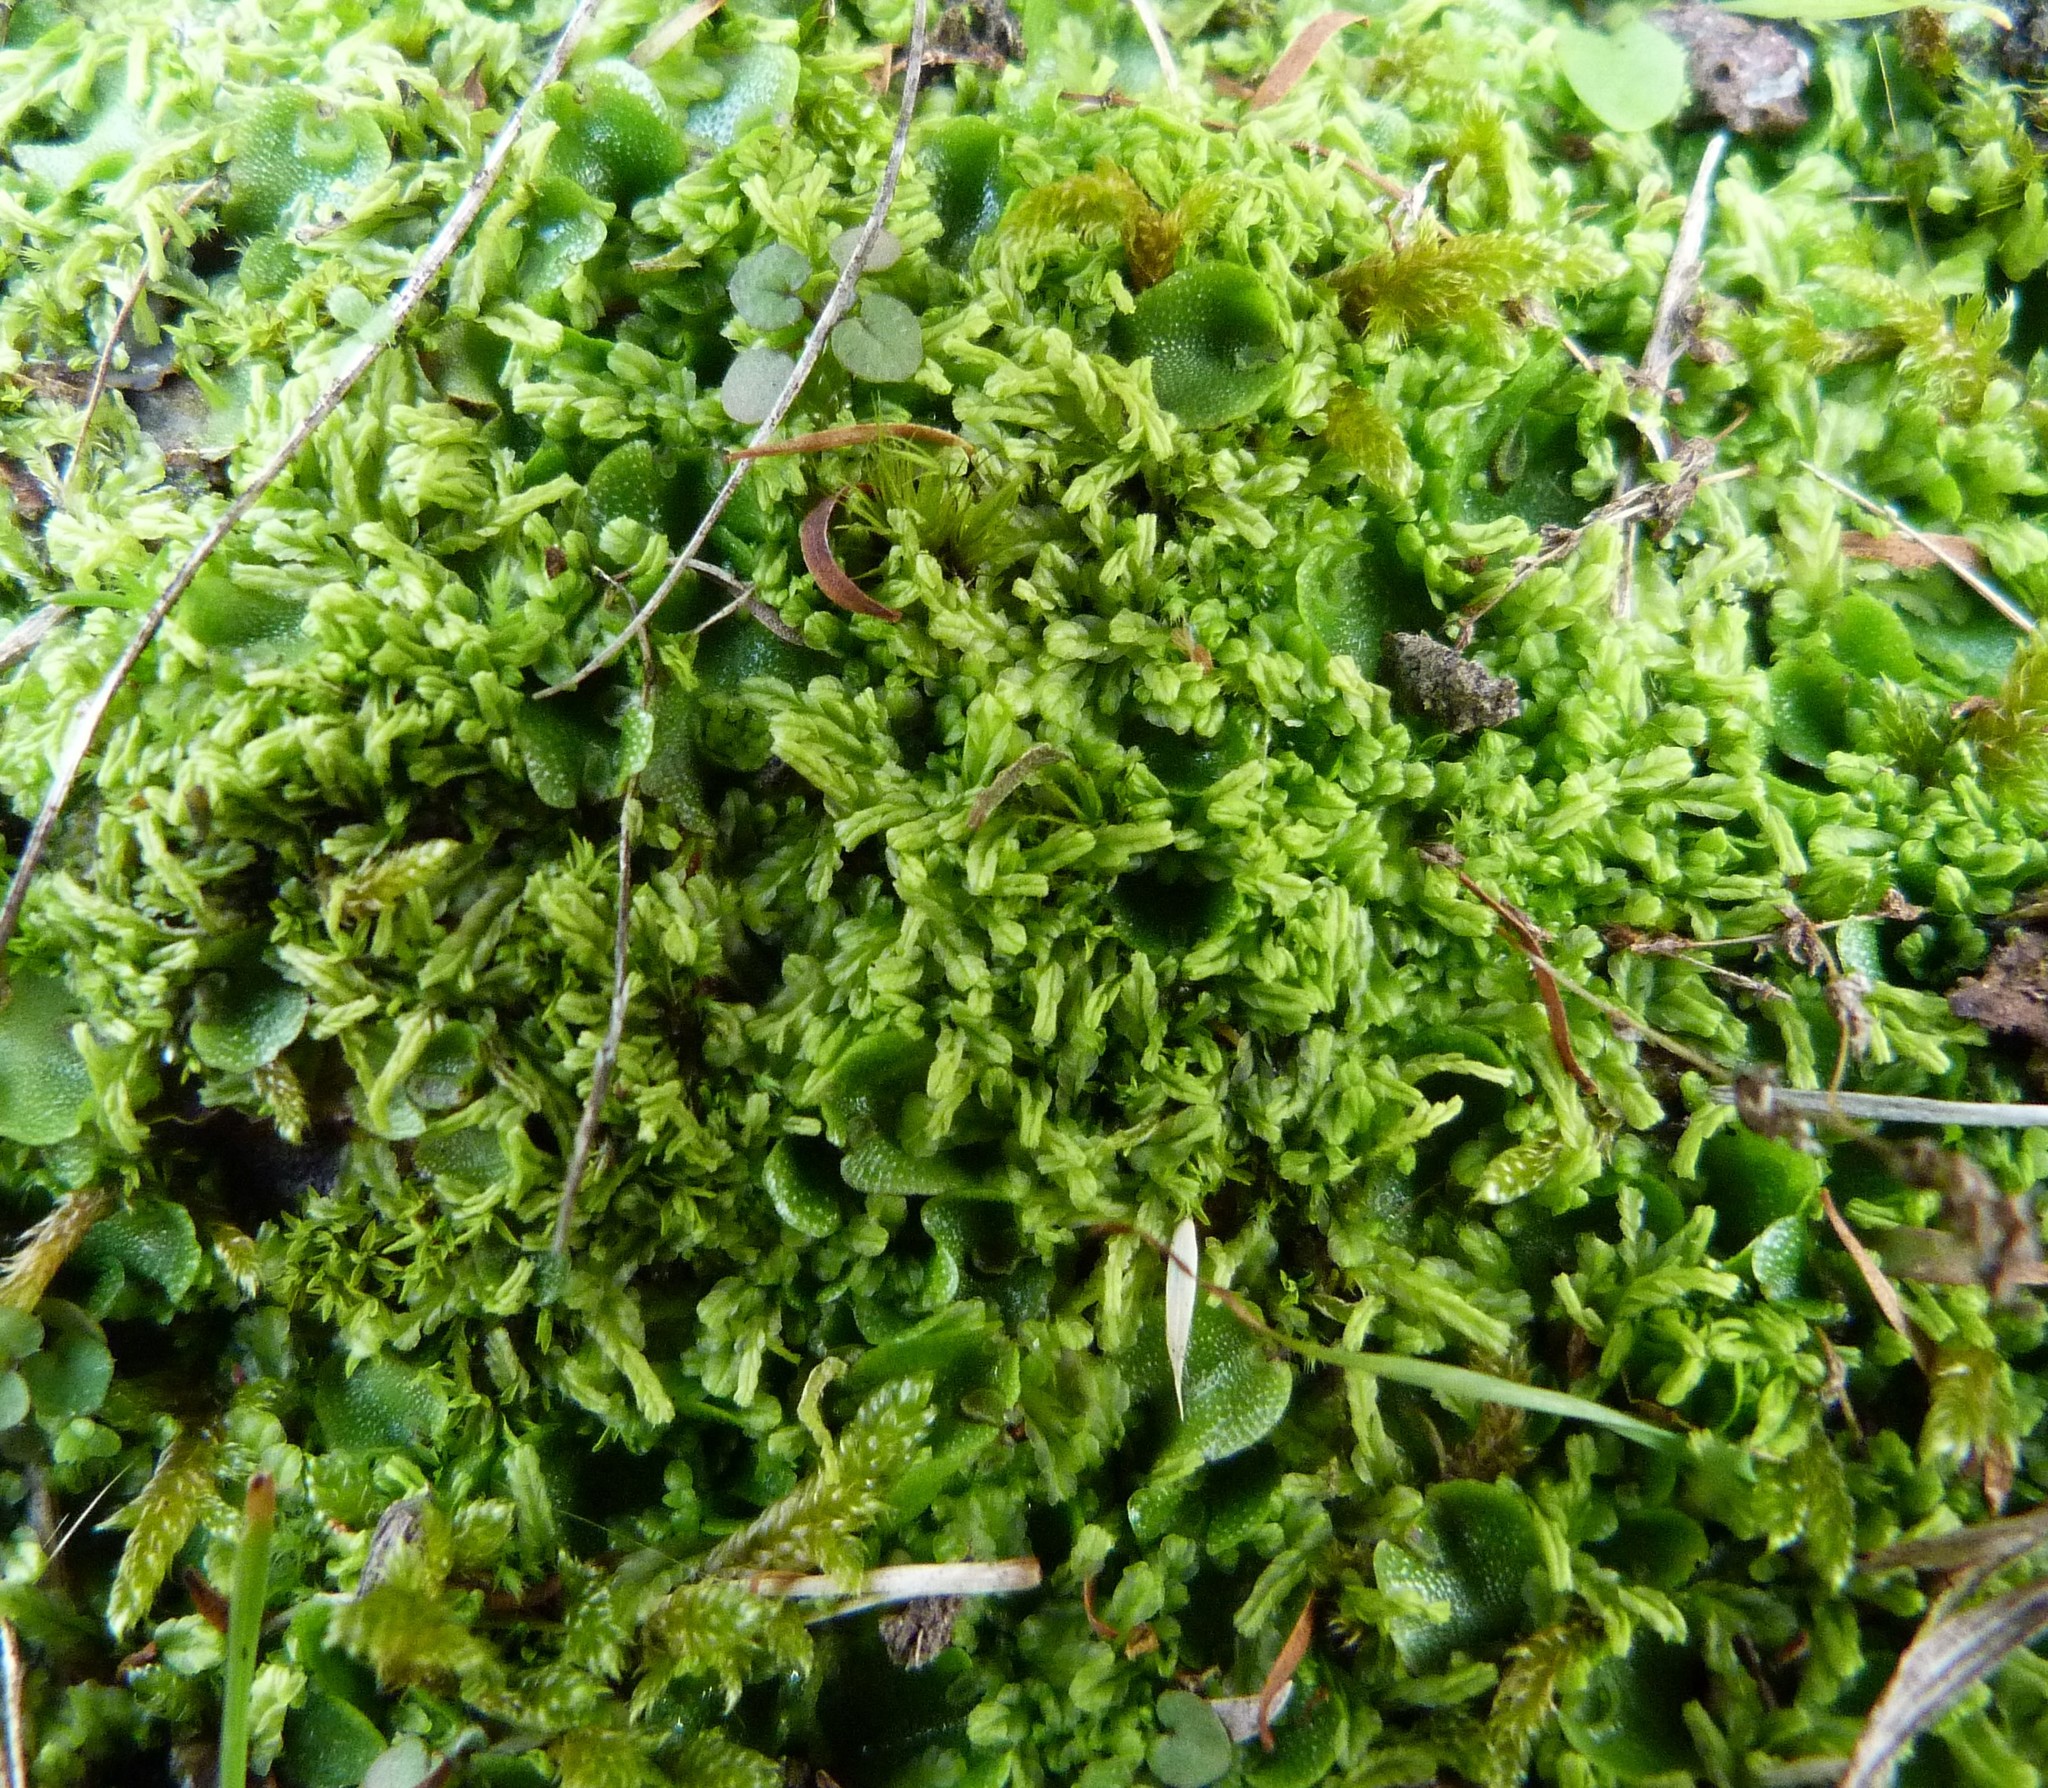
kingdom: Plantae
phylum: Marchantiophyta
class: Jungermanniopsida
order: Jungermanniales
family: Lophocoleaceae
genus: Lophocolea
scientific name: Lophocolea semiteres
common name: Southern crestwort
